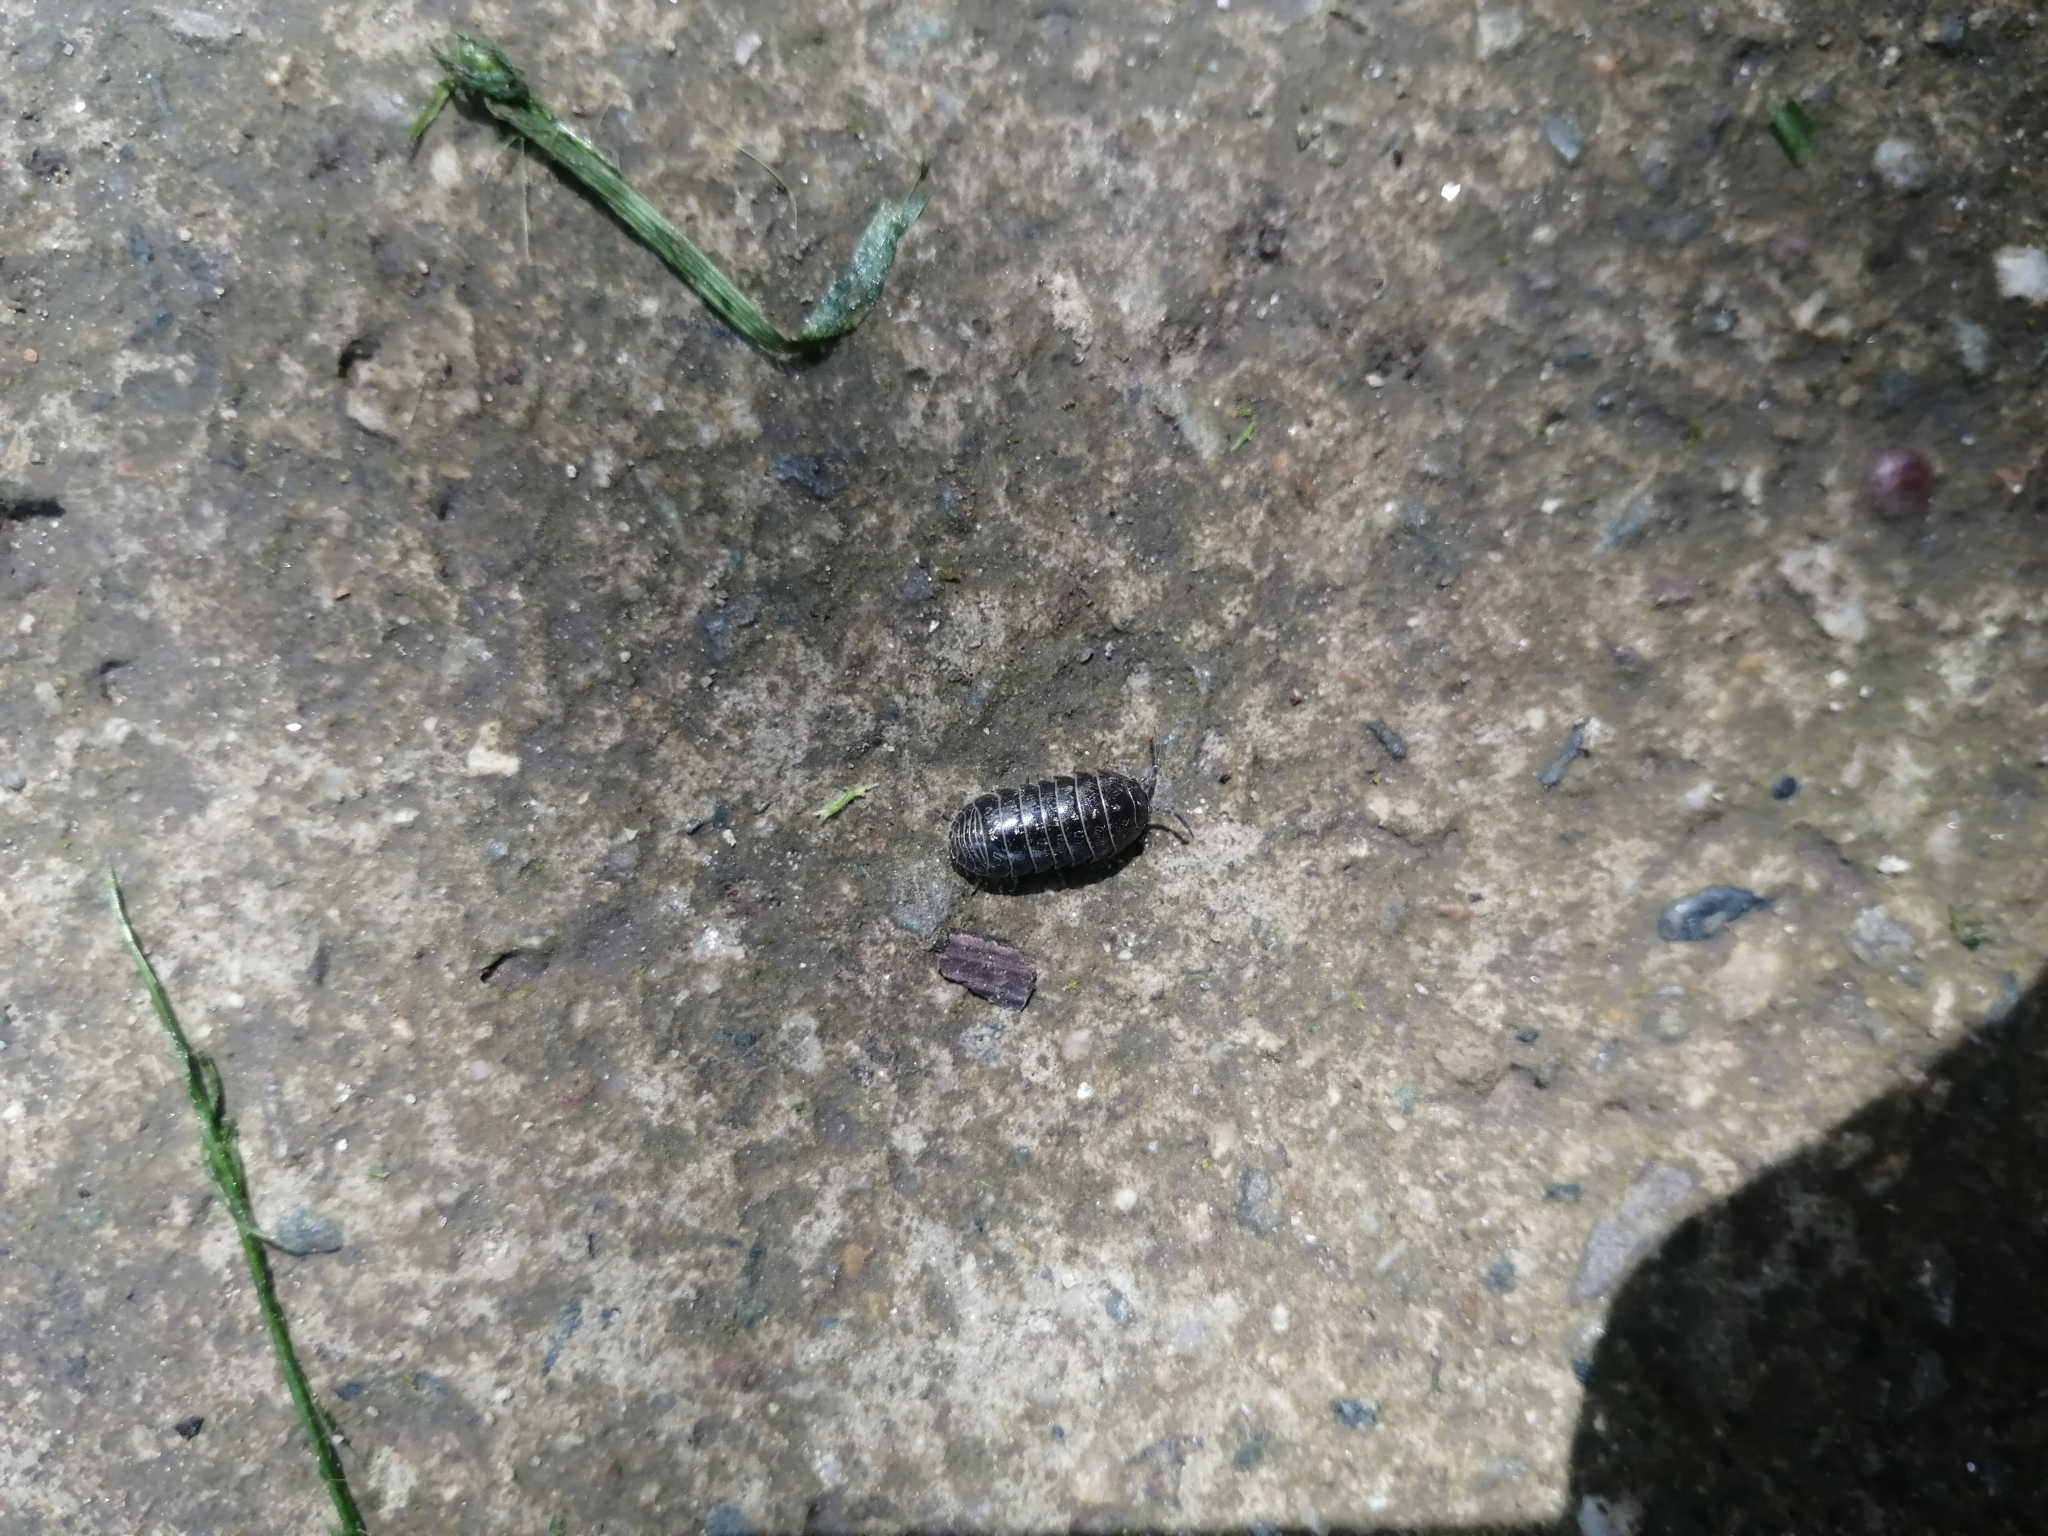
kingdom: Animalia
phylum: Arthropoda
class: Malacostraca
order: Isopoda
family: Armadillidiidae
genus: Armadillidium
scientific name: Armadillidium vulgare
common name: Common pill woodlouse
